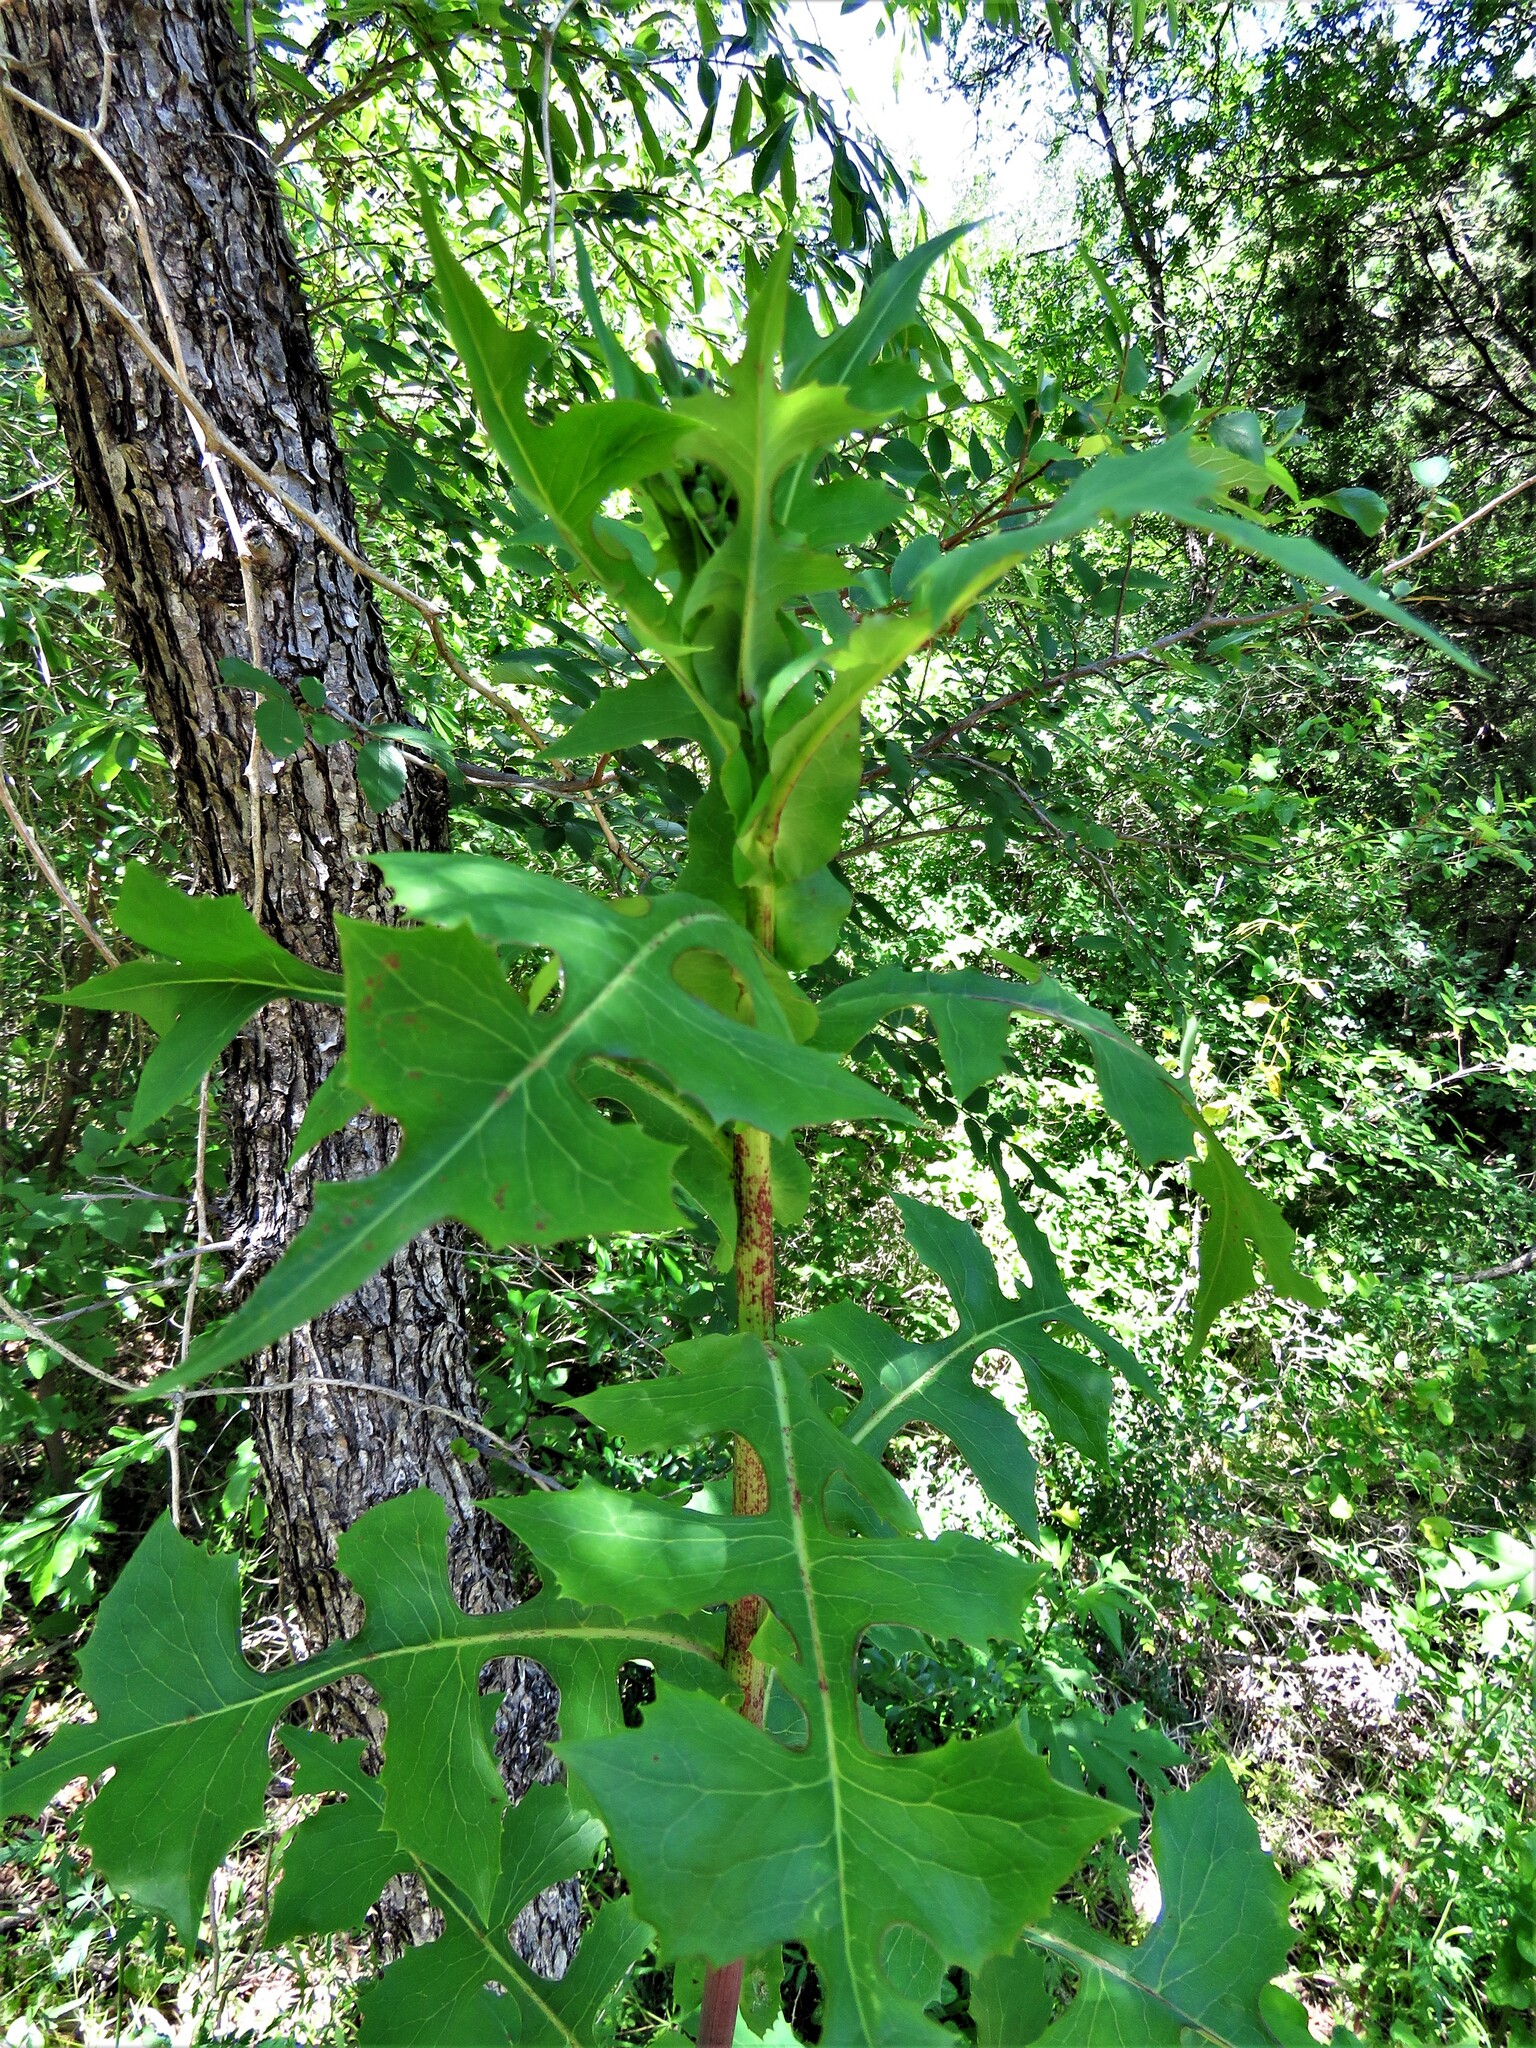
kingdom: Plantae
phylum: Tracheophyta
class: Magnoliopsida
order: Asterales
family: Asteraceae
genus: Sonchus
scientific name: Sonchus oleraceus
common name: Common sowthistle
